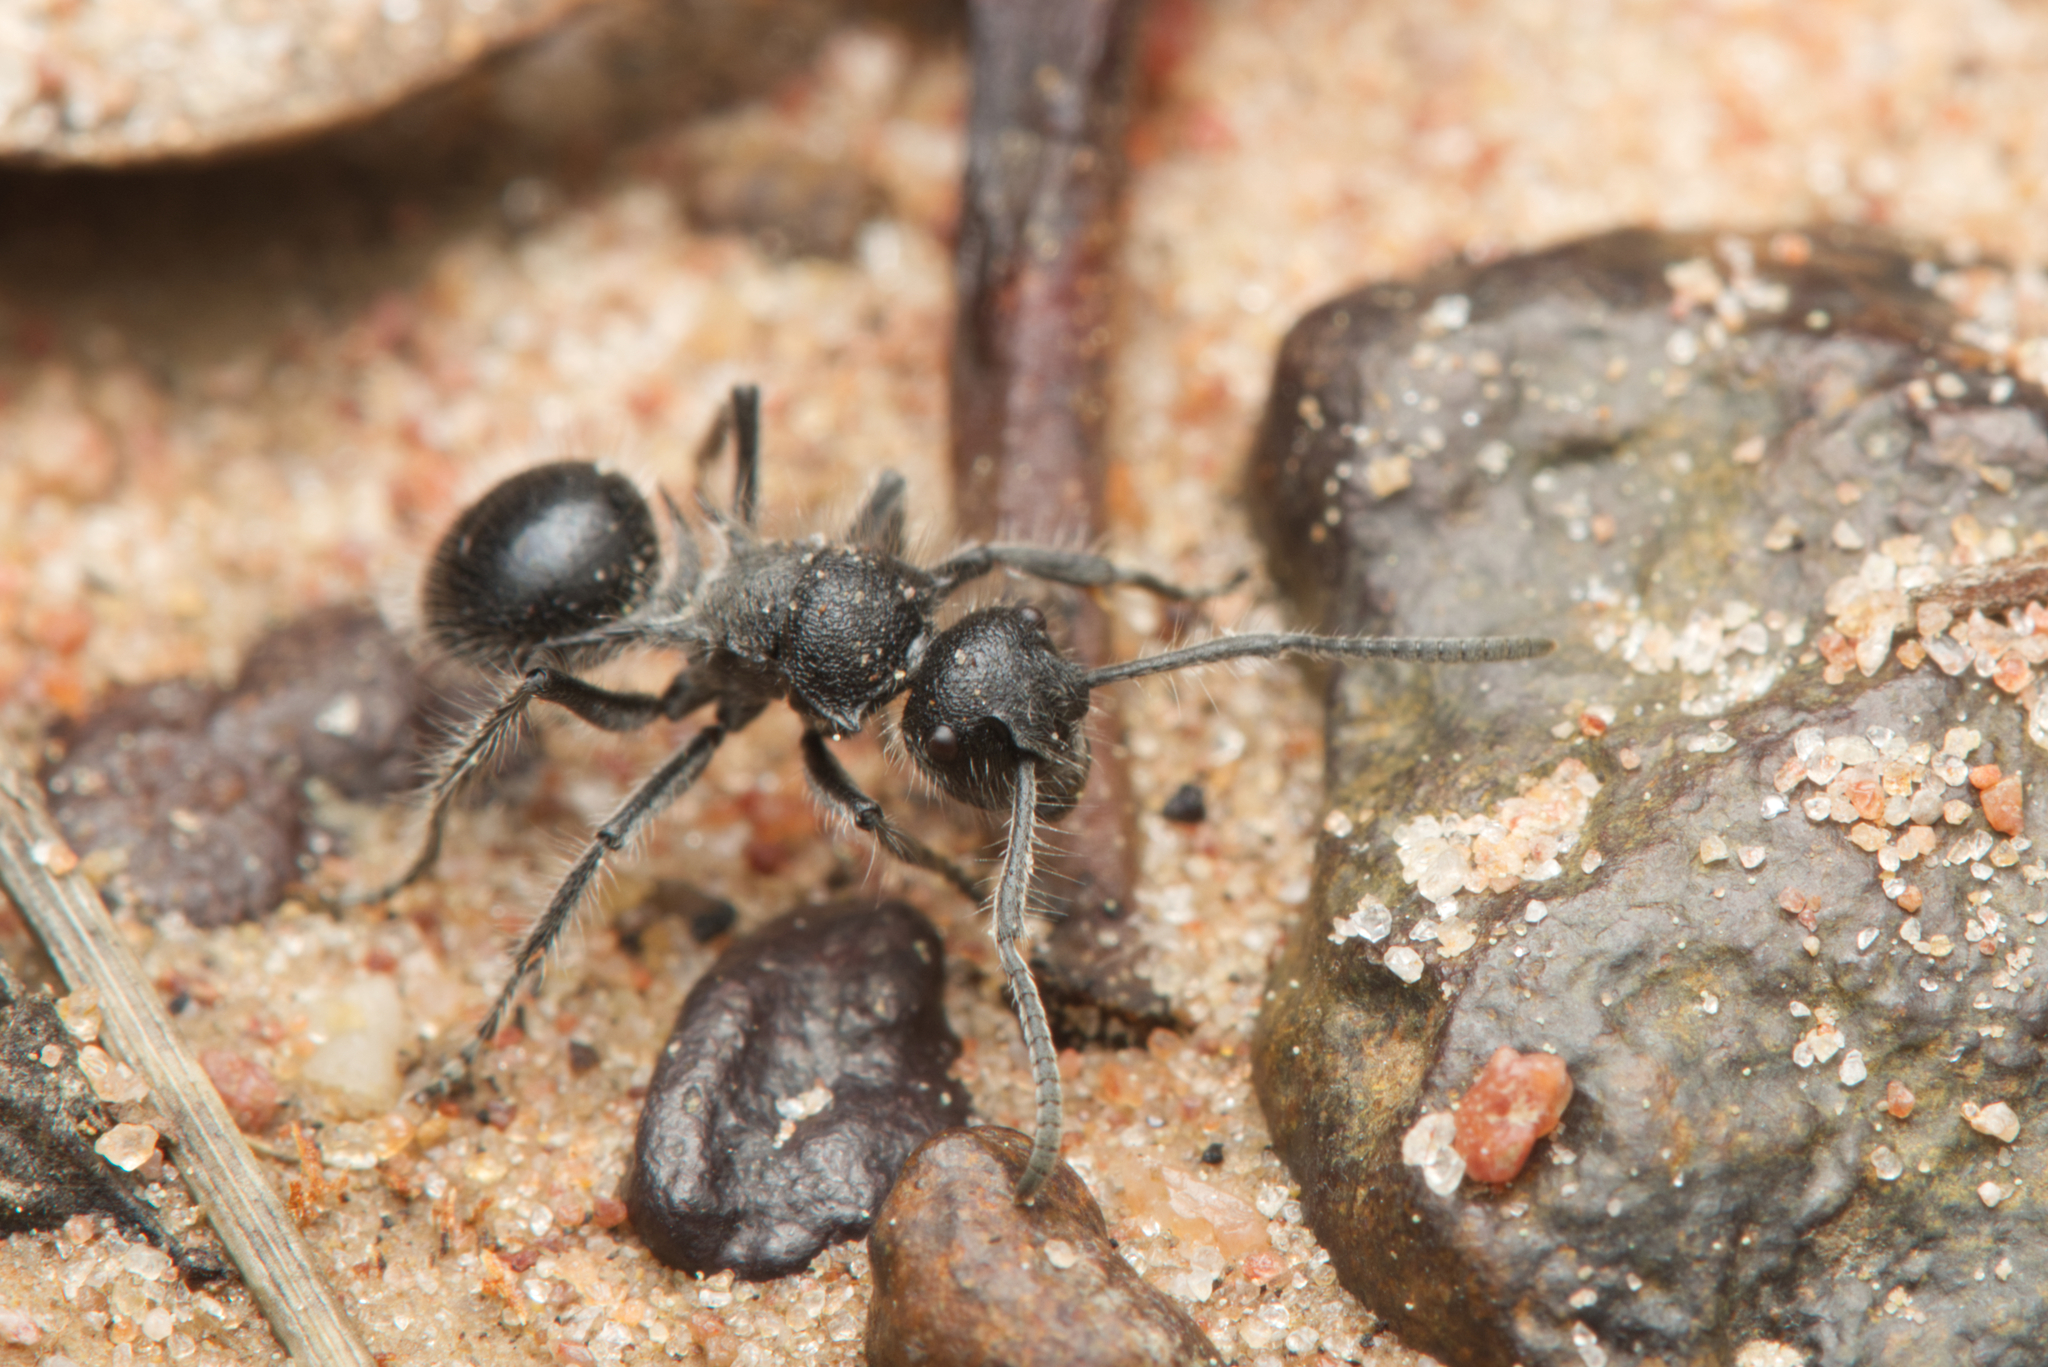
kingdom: Animalia
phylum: Arthropoda
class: Insecta
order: Hymenoptera
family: Formicidae
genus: Polyrhachis
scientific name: Polyrhachis punctiventris
